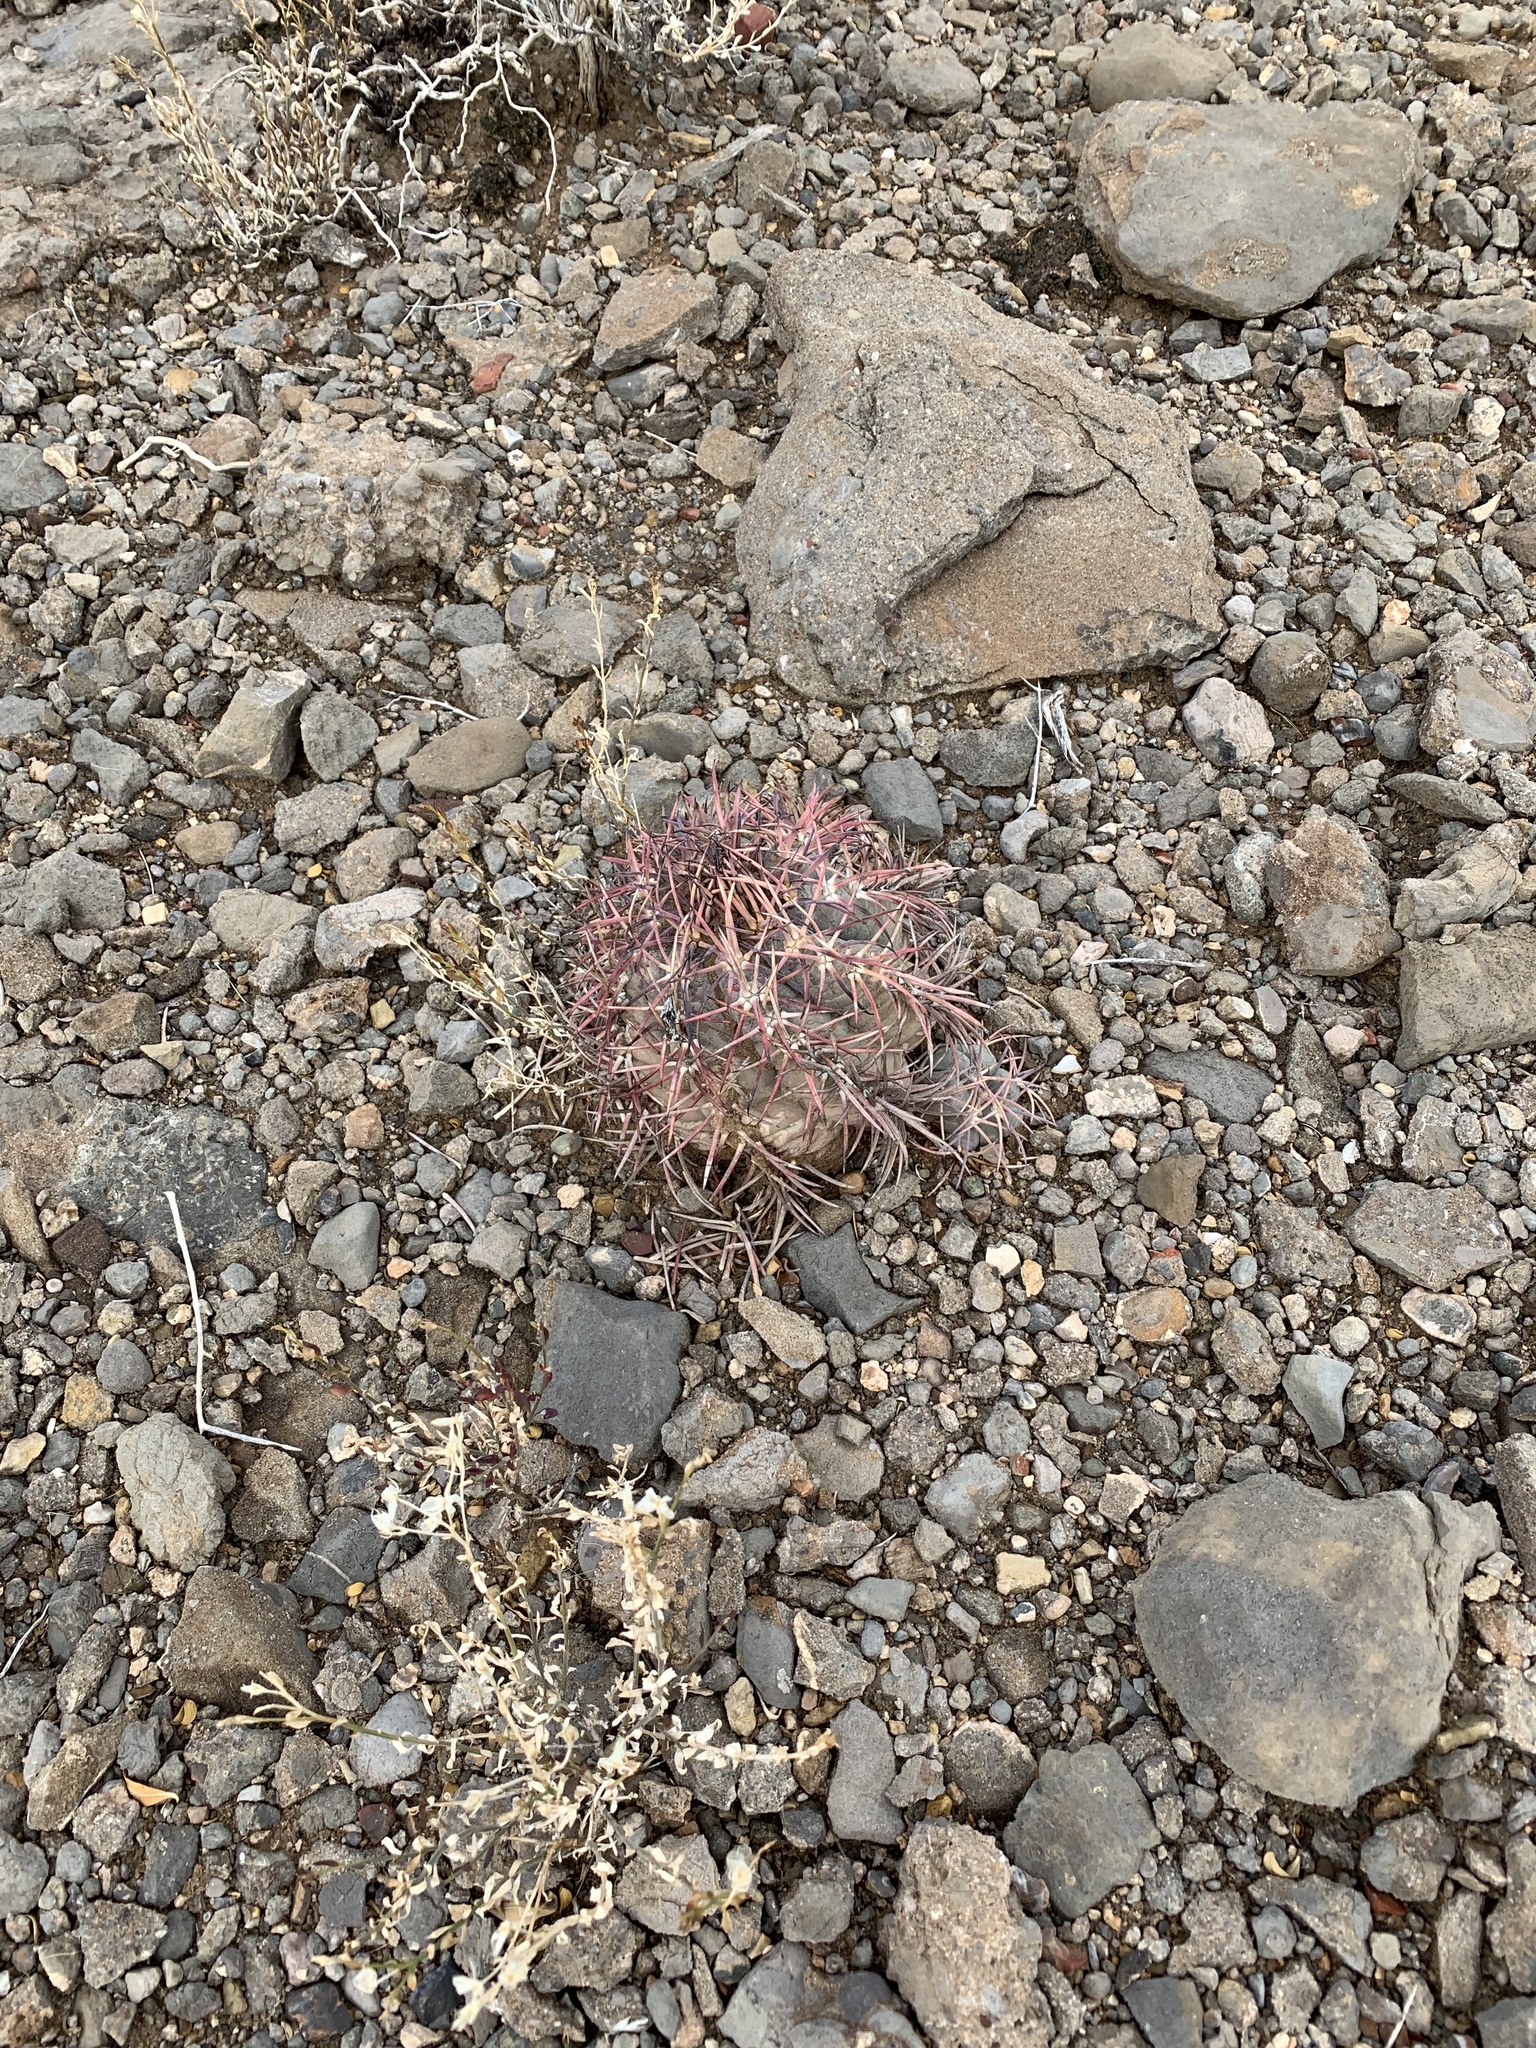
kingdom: Plantae
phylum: Tracheophyta
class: Magnoliopsida
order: Caryophyllales
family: Cactaceae
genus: Echinocactus
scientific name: Echinocactus horizonthalonius
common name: Devilshead
